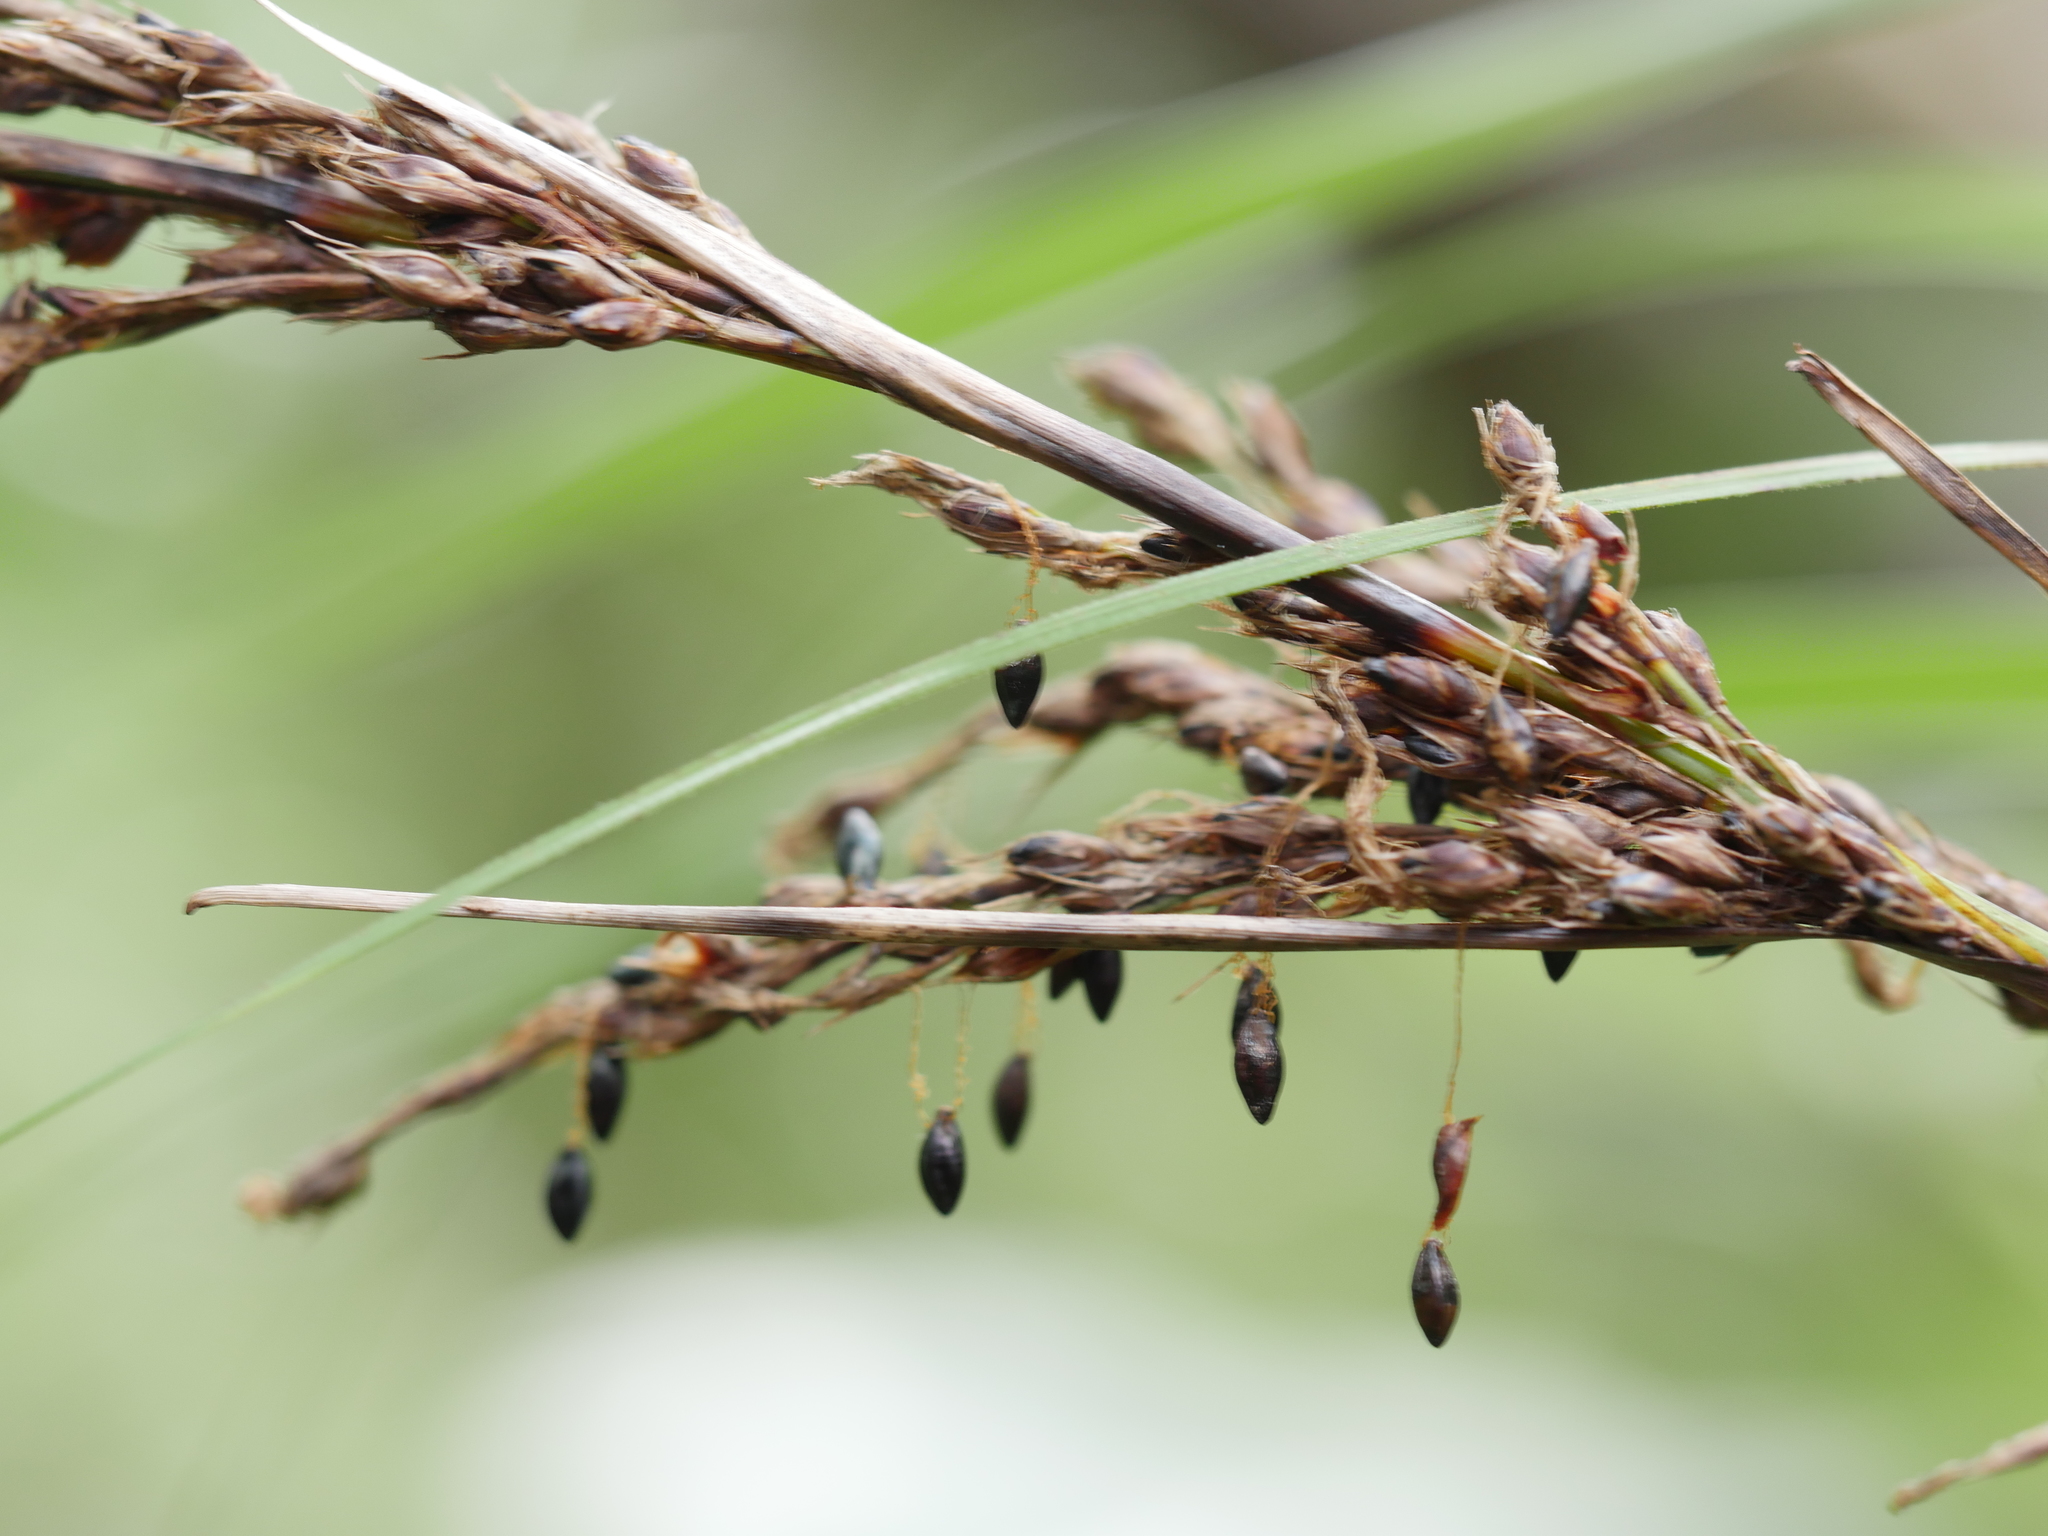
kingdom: Plantae
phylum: Tracheophyta
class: Liliopsida
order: Poales
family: Cyperaceae
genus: Gahnia
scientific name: Gahnia lacera
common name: Sawsedge
